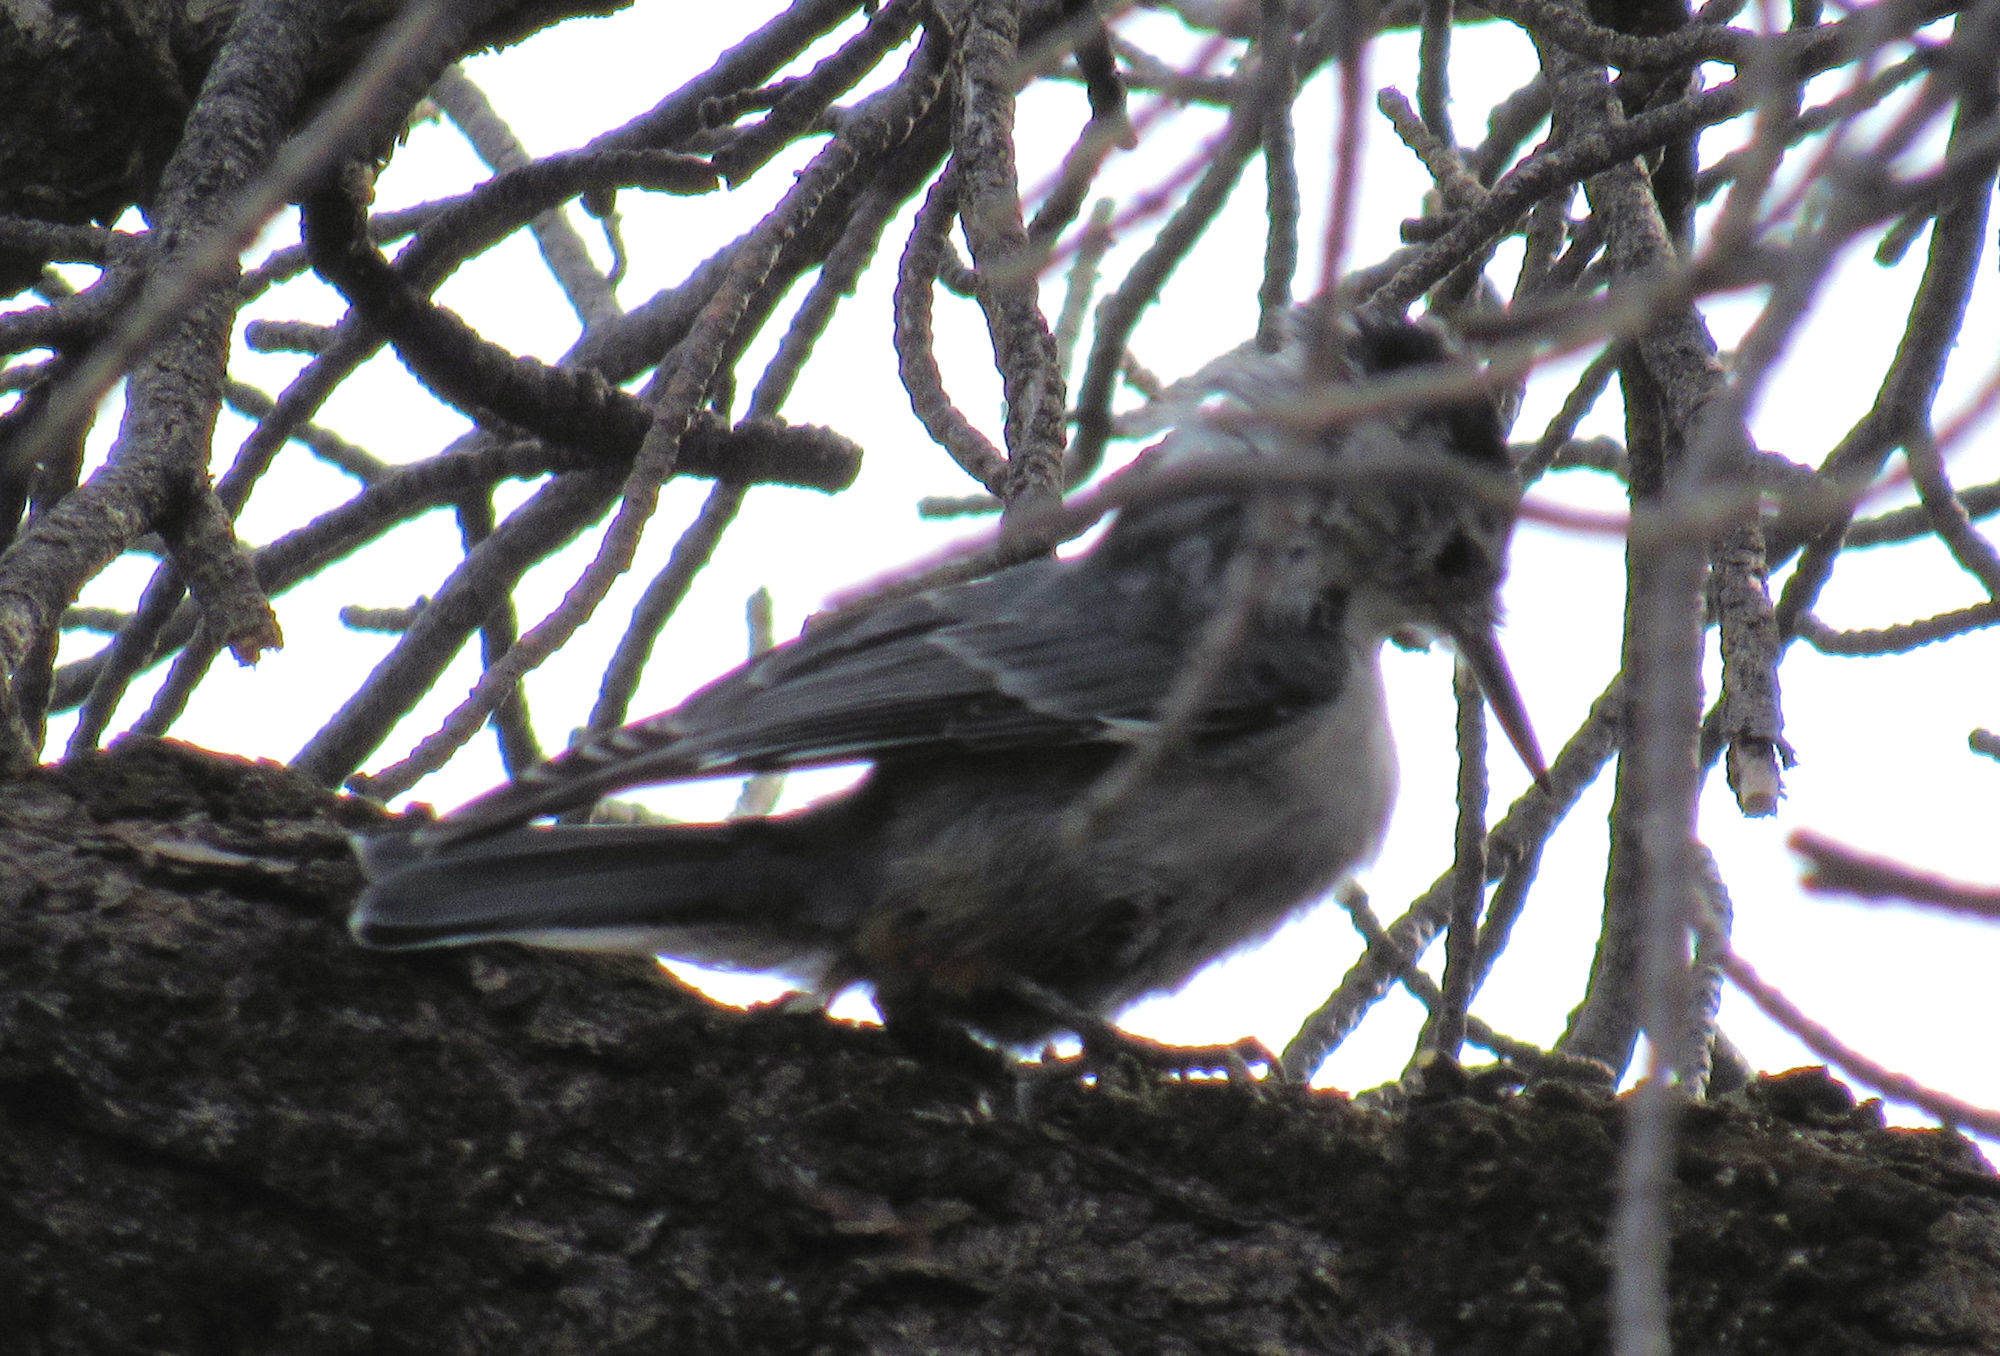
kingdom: Animalia
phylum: Chordata
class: Aves
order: Passeriformes
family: Sittidae
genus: Sitta
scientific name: Sitta carolinensis
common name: White-breasted nuthatch
